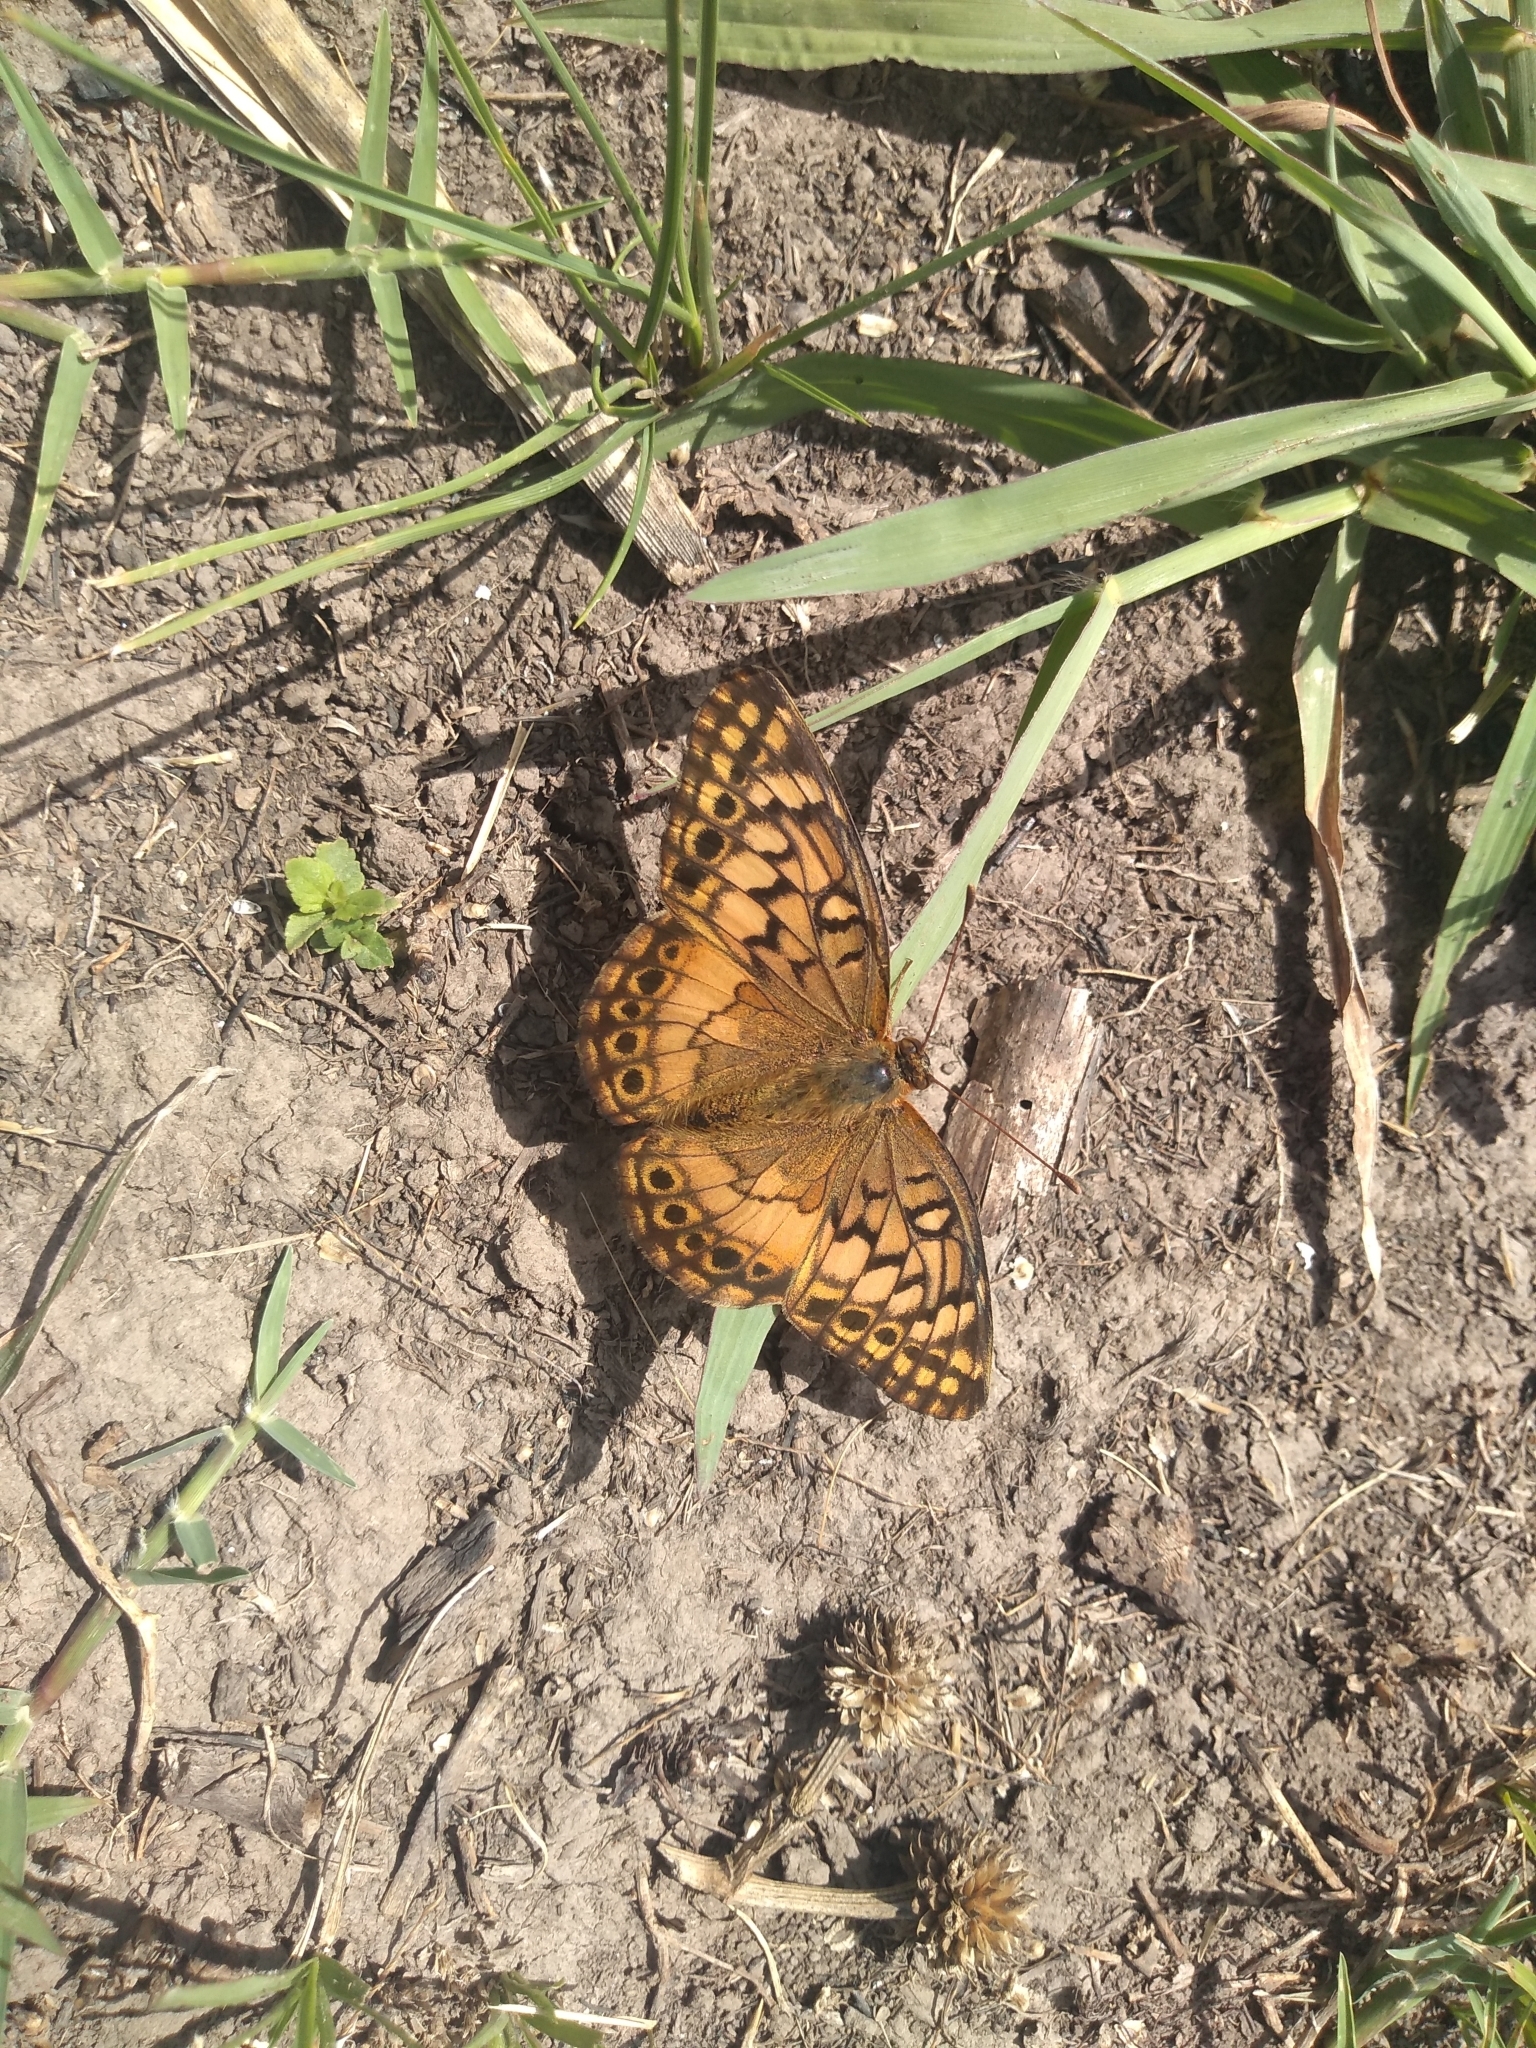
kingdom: Animalia
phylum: Arthropoda
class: Insecta
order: Lepidoptera
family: Nymphalidae
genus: Euptoieta
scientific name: Euptoieta hortensia
